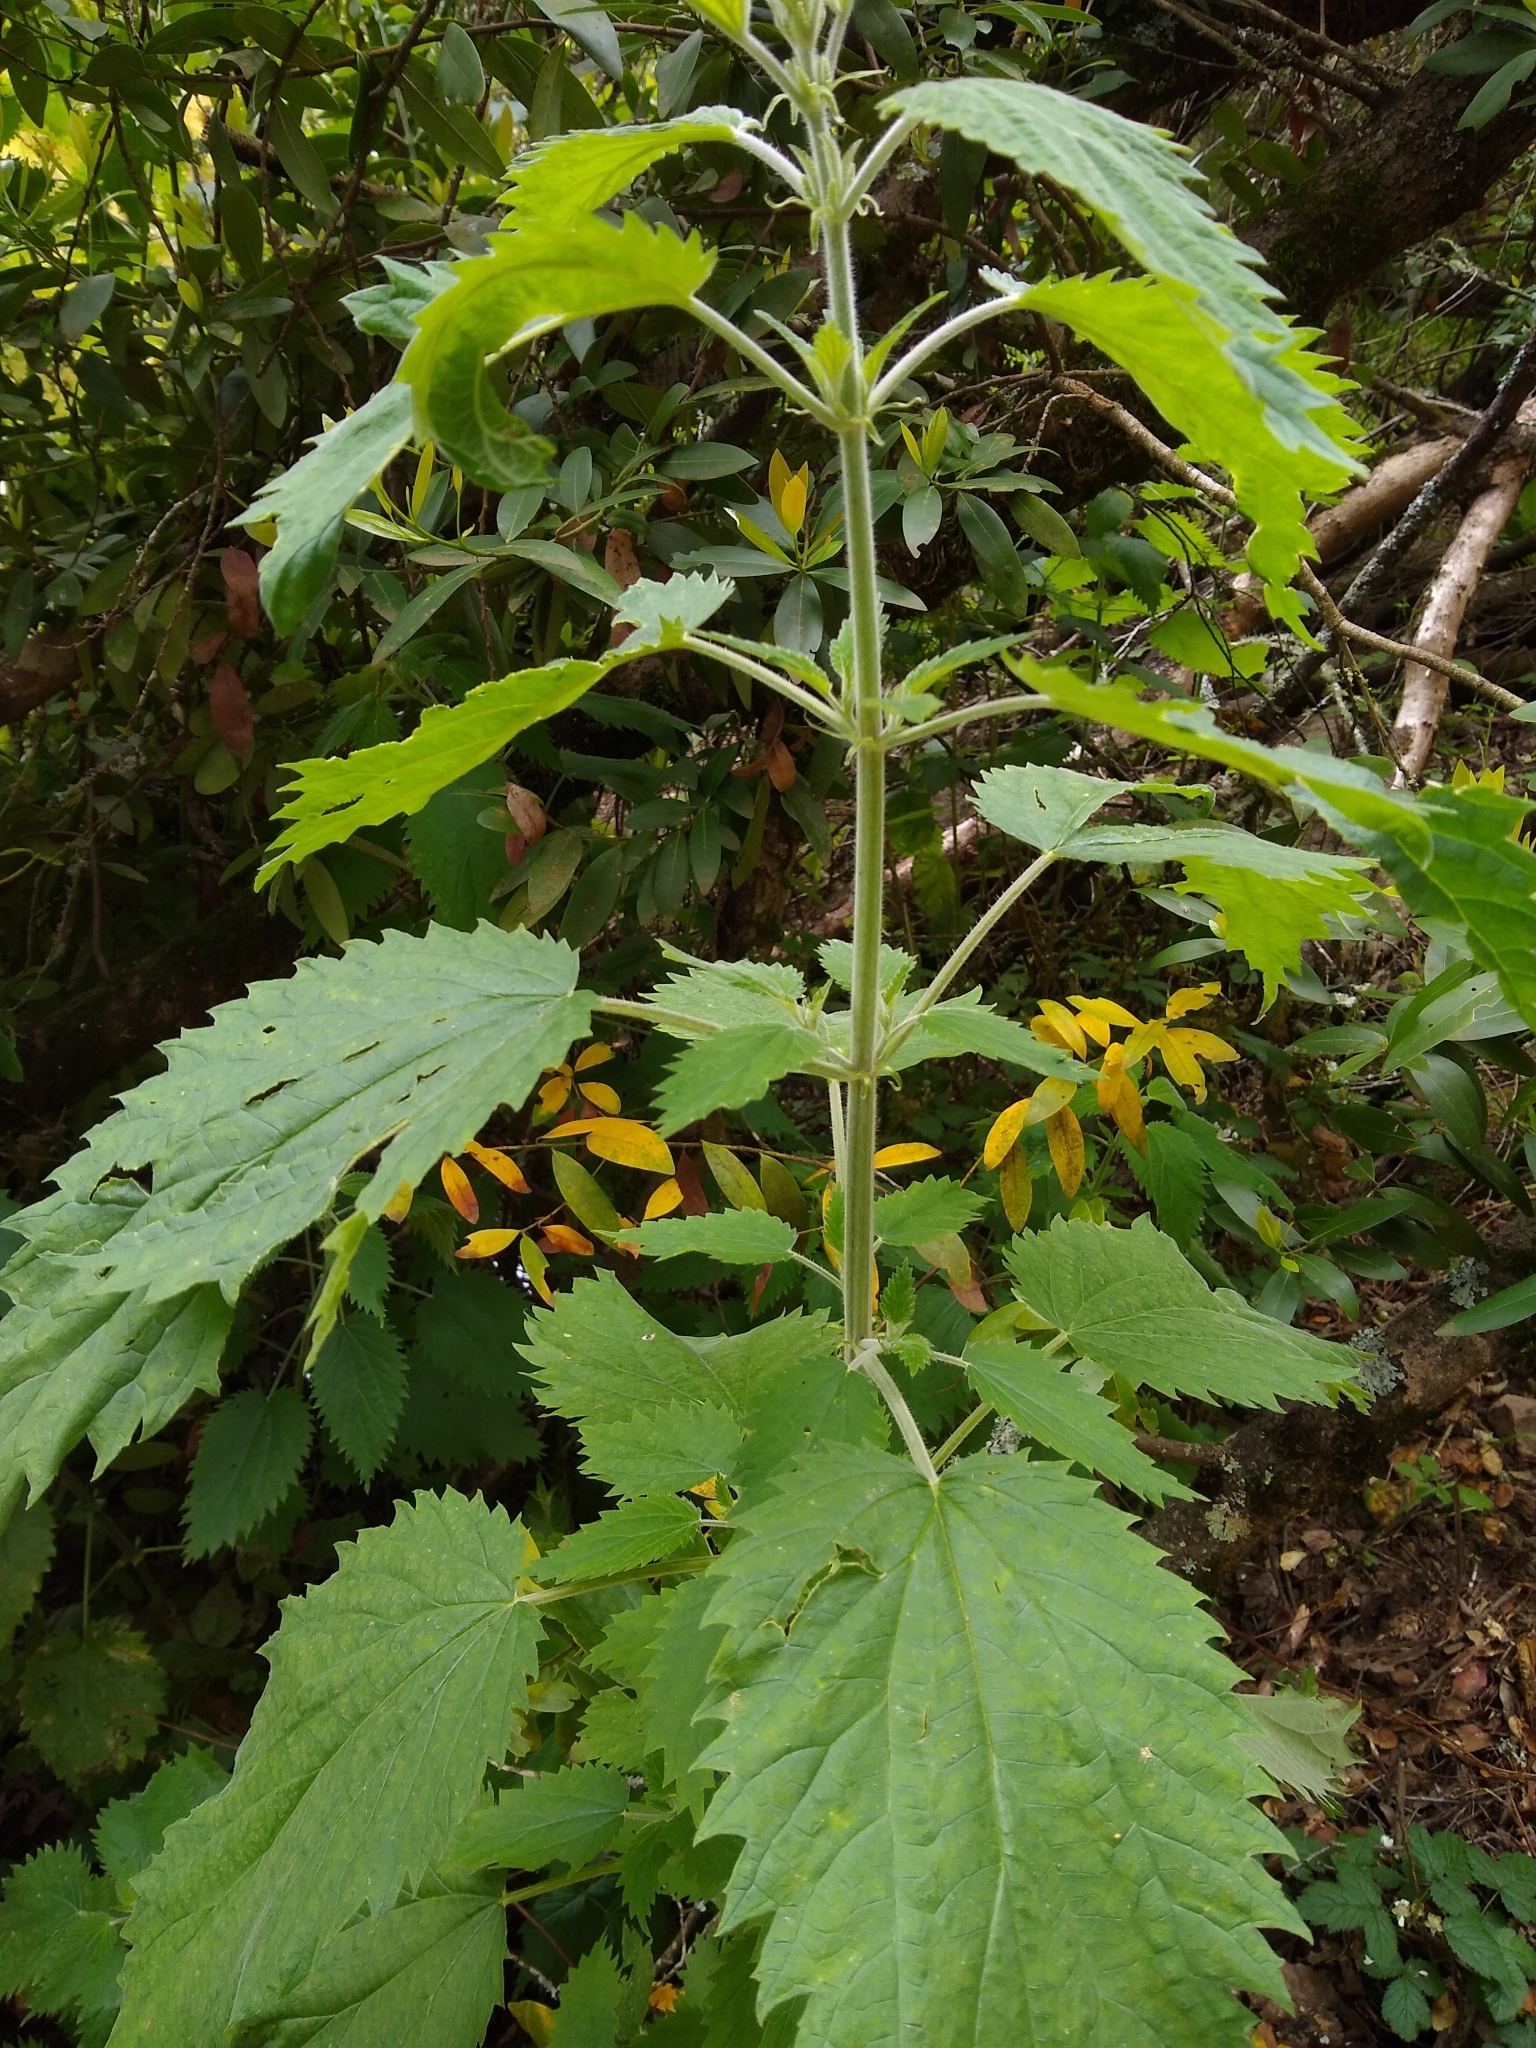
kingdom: Plantae
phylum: Tracheophyta
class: Magnoliopsida
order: Rosales
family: Urticaceae
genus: Urtica
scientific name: Urtica dioica
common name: Common nettle
